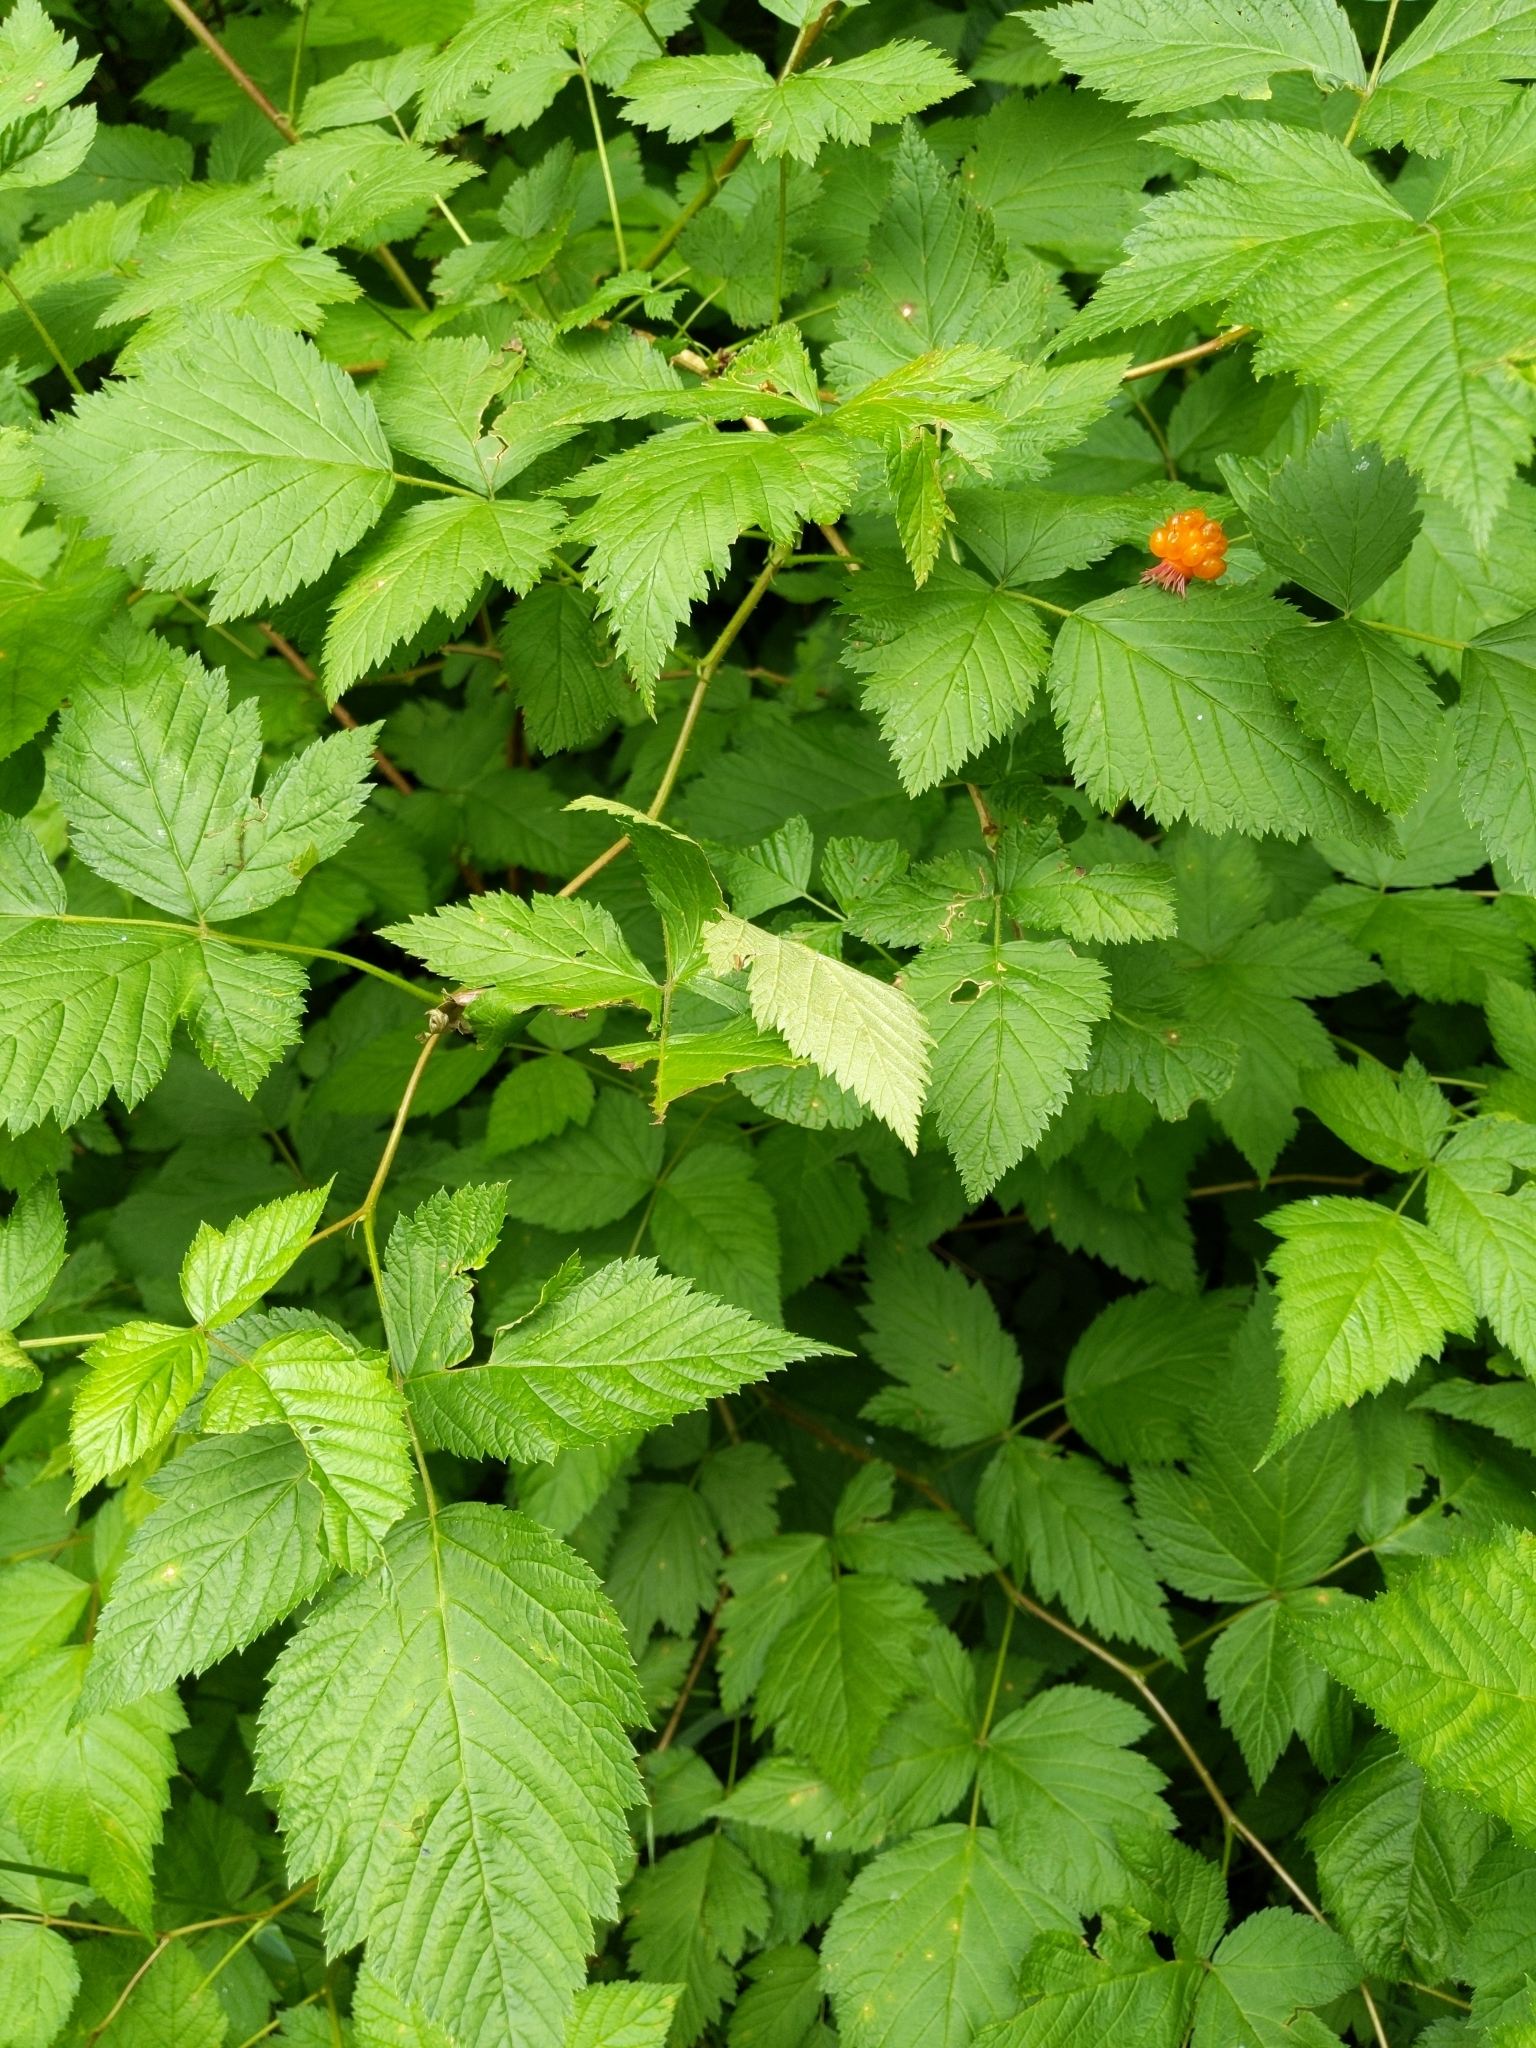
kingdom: Plantae
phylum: Tracheophyta
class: Magnoliopsida
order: Rosales
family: Rosaceae
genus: Rubus
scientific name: Rubus spectabilis
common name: Salmonberry
